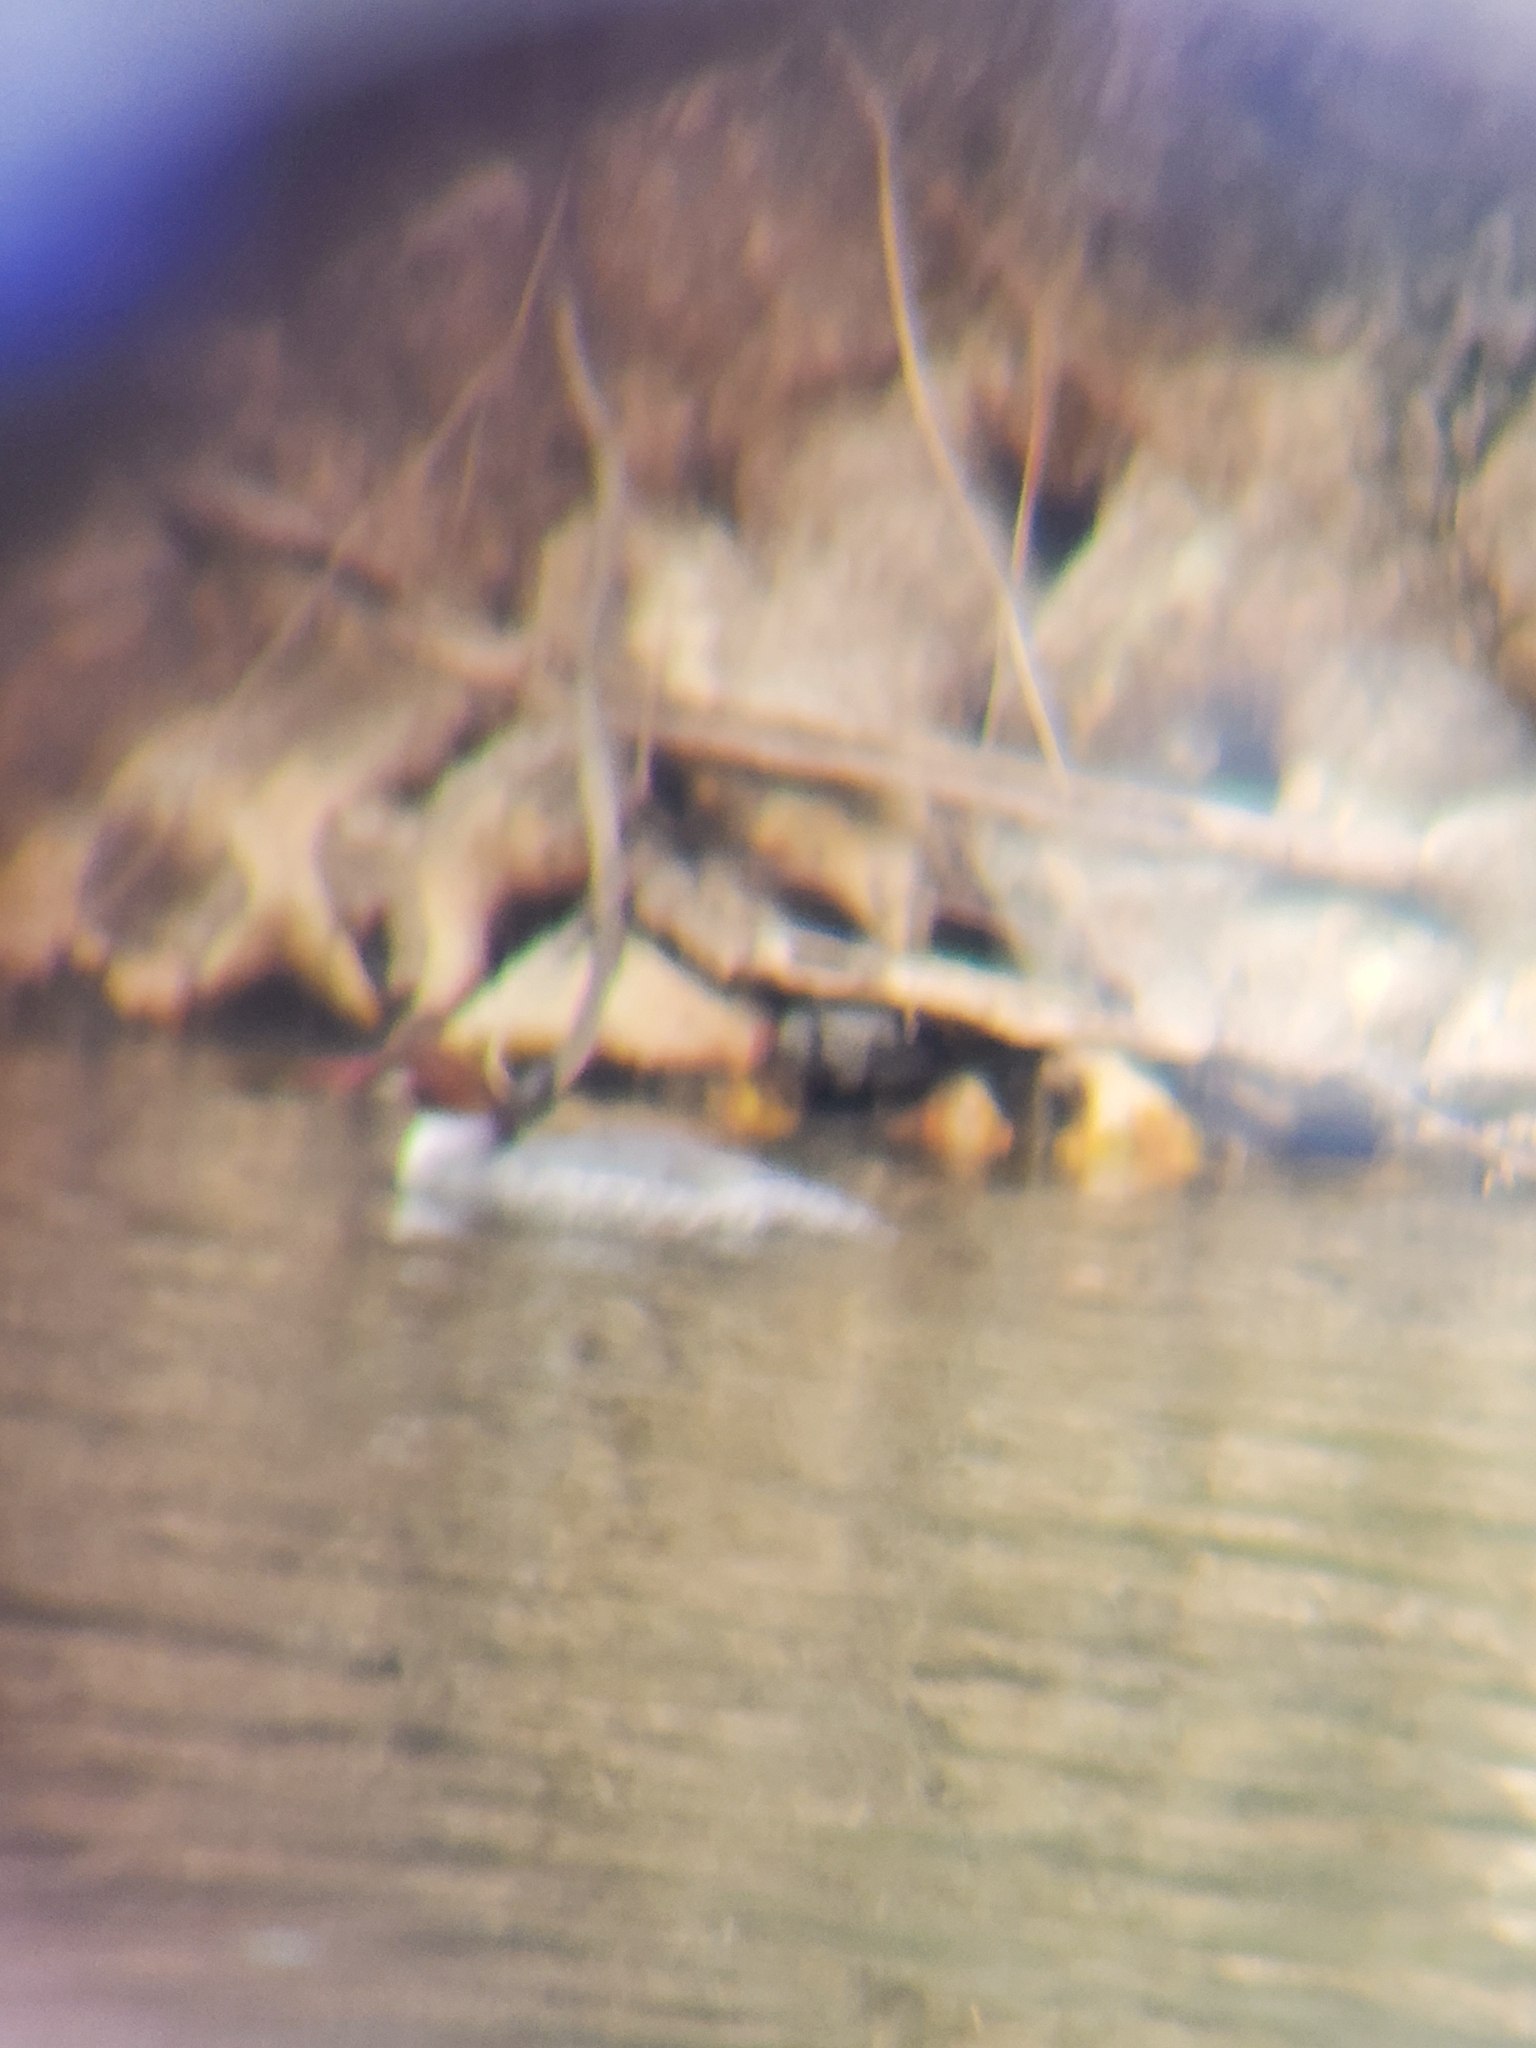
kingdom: Animalia
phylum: Chordata
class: Aves
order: Anseriformes
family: Anatidae
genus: Mergus
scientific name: Mergus merganser
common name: Common merganser
